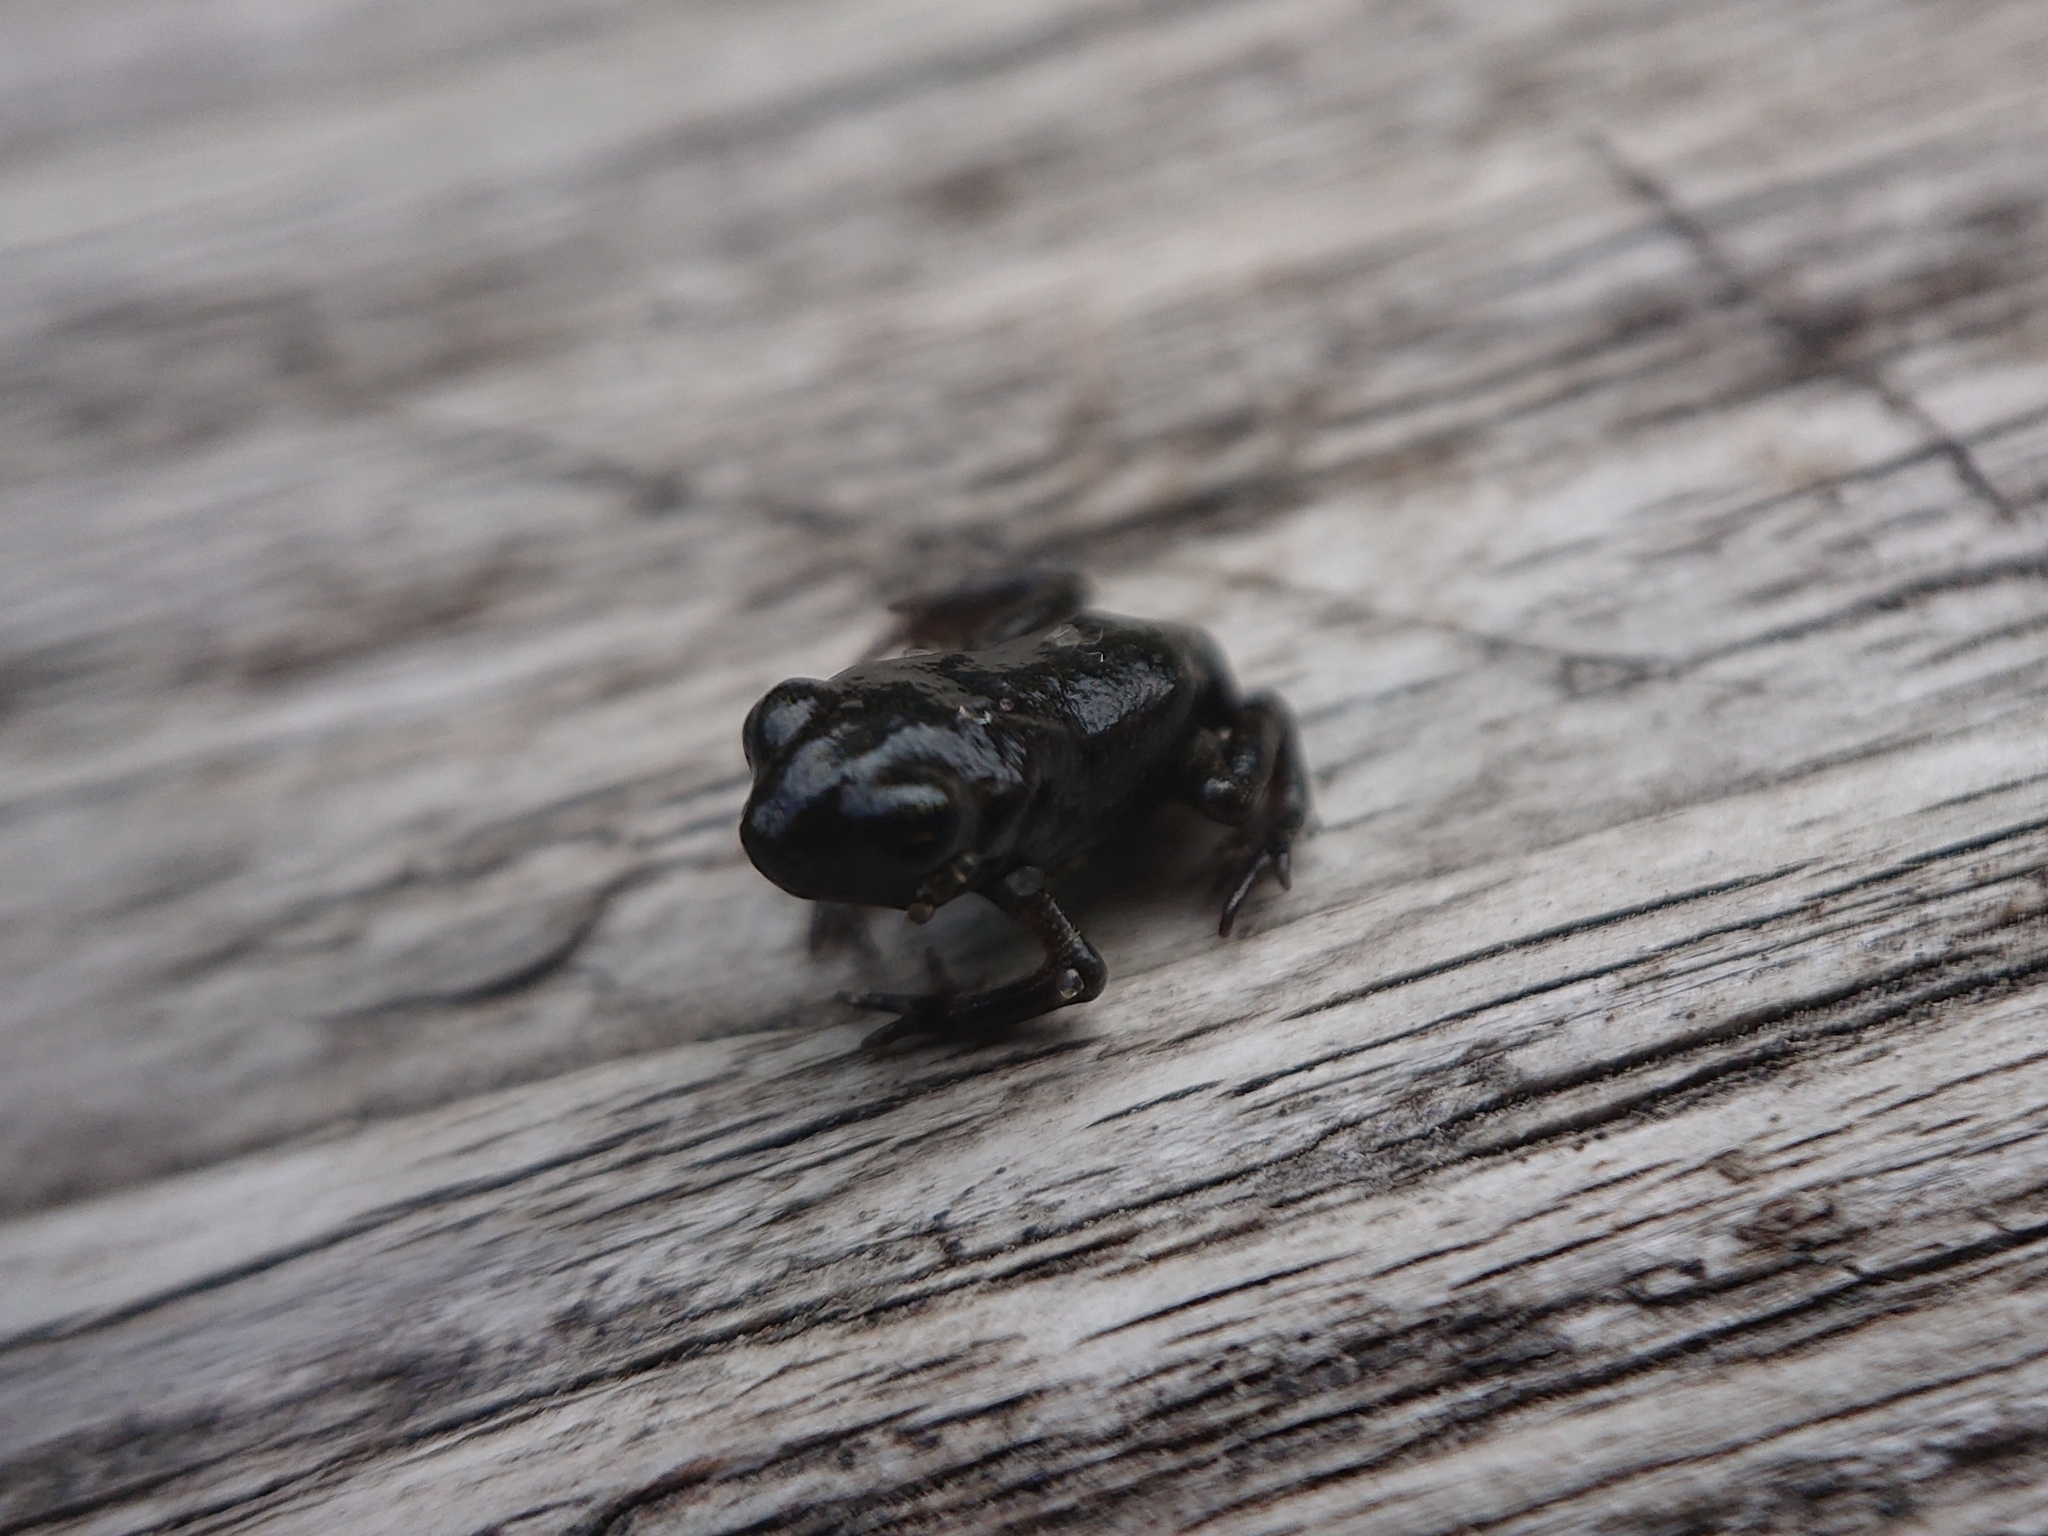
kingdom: Animalia
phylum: Chordata
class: Amphibia
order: Anura
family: Bufonidae
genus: Bufo
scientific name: Bufo bufo
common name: Common toad
